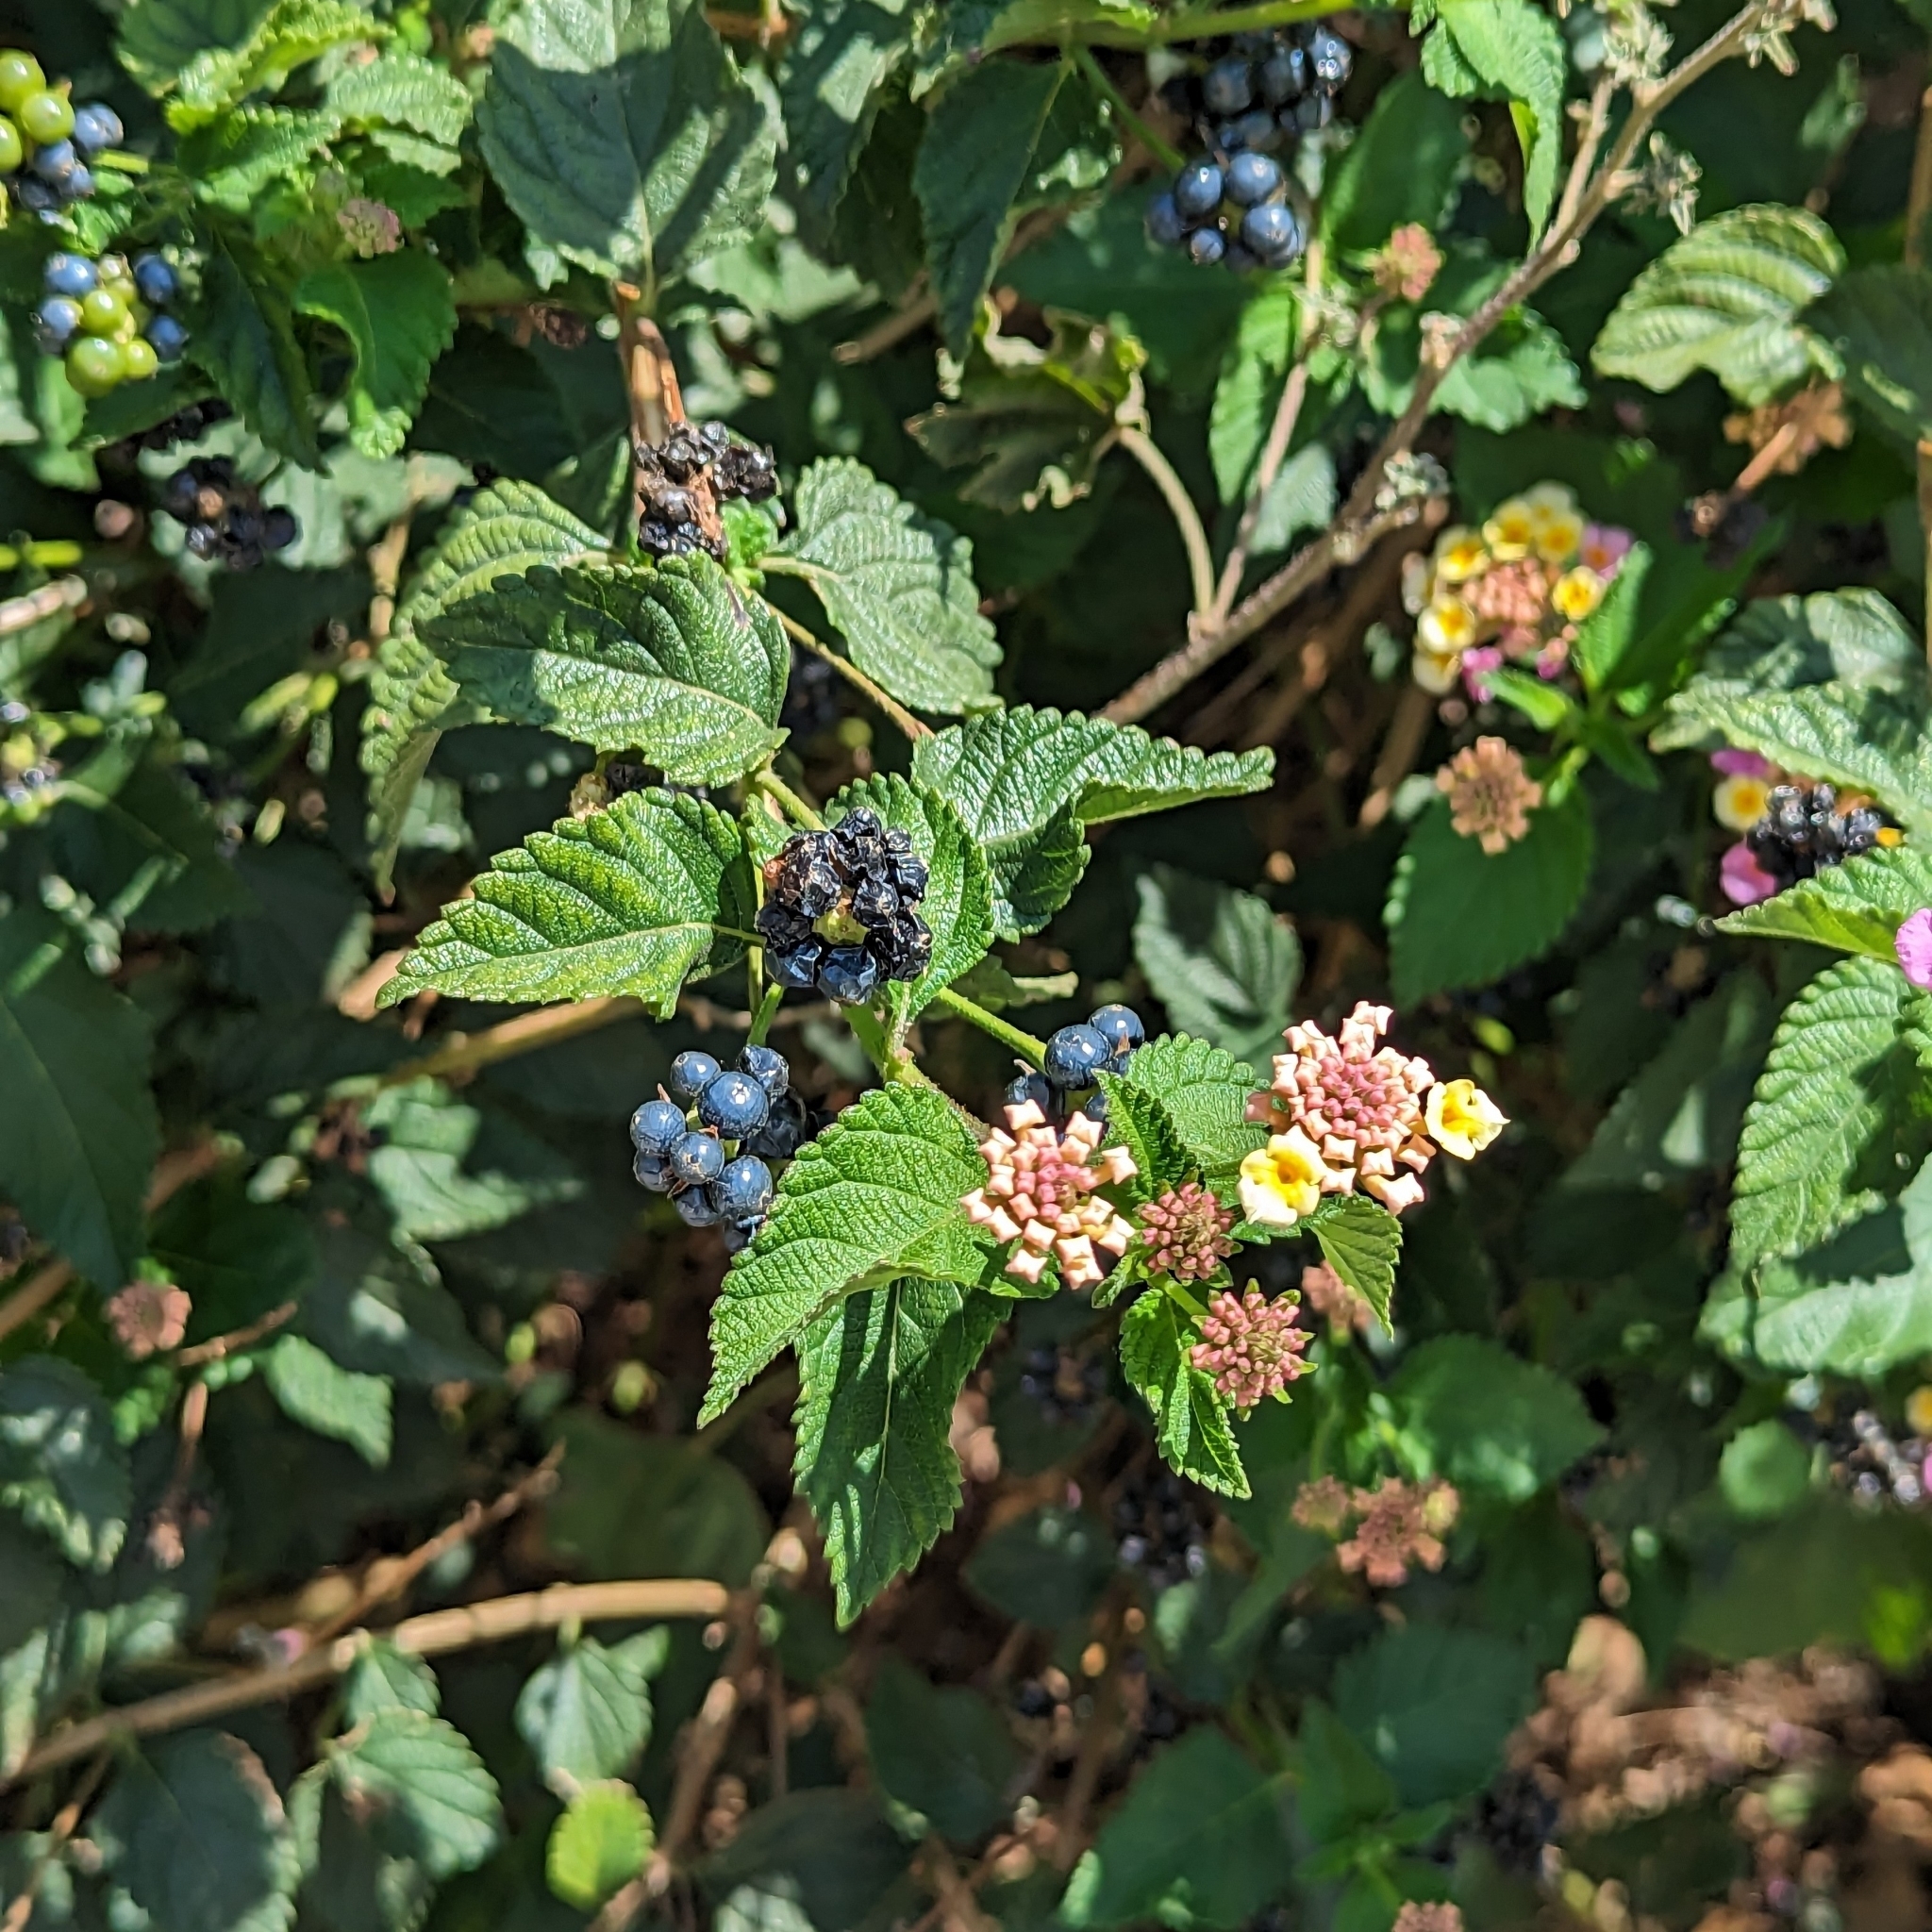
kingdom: Plantae
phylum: Tracheophyta
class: Magnoliopsida
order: Lamiales
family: Verbenaceae
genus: Lantana
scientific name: Lantana camara
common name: Lantana
